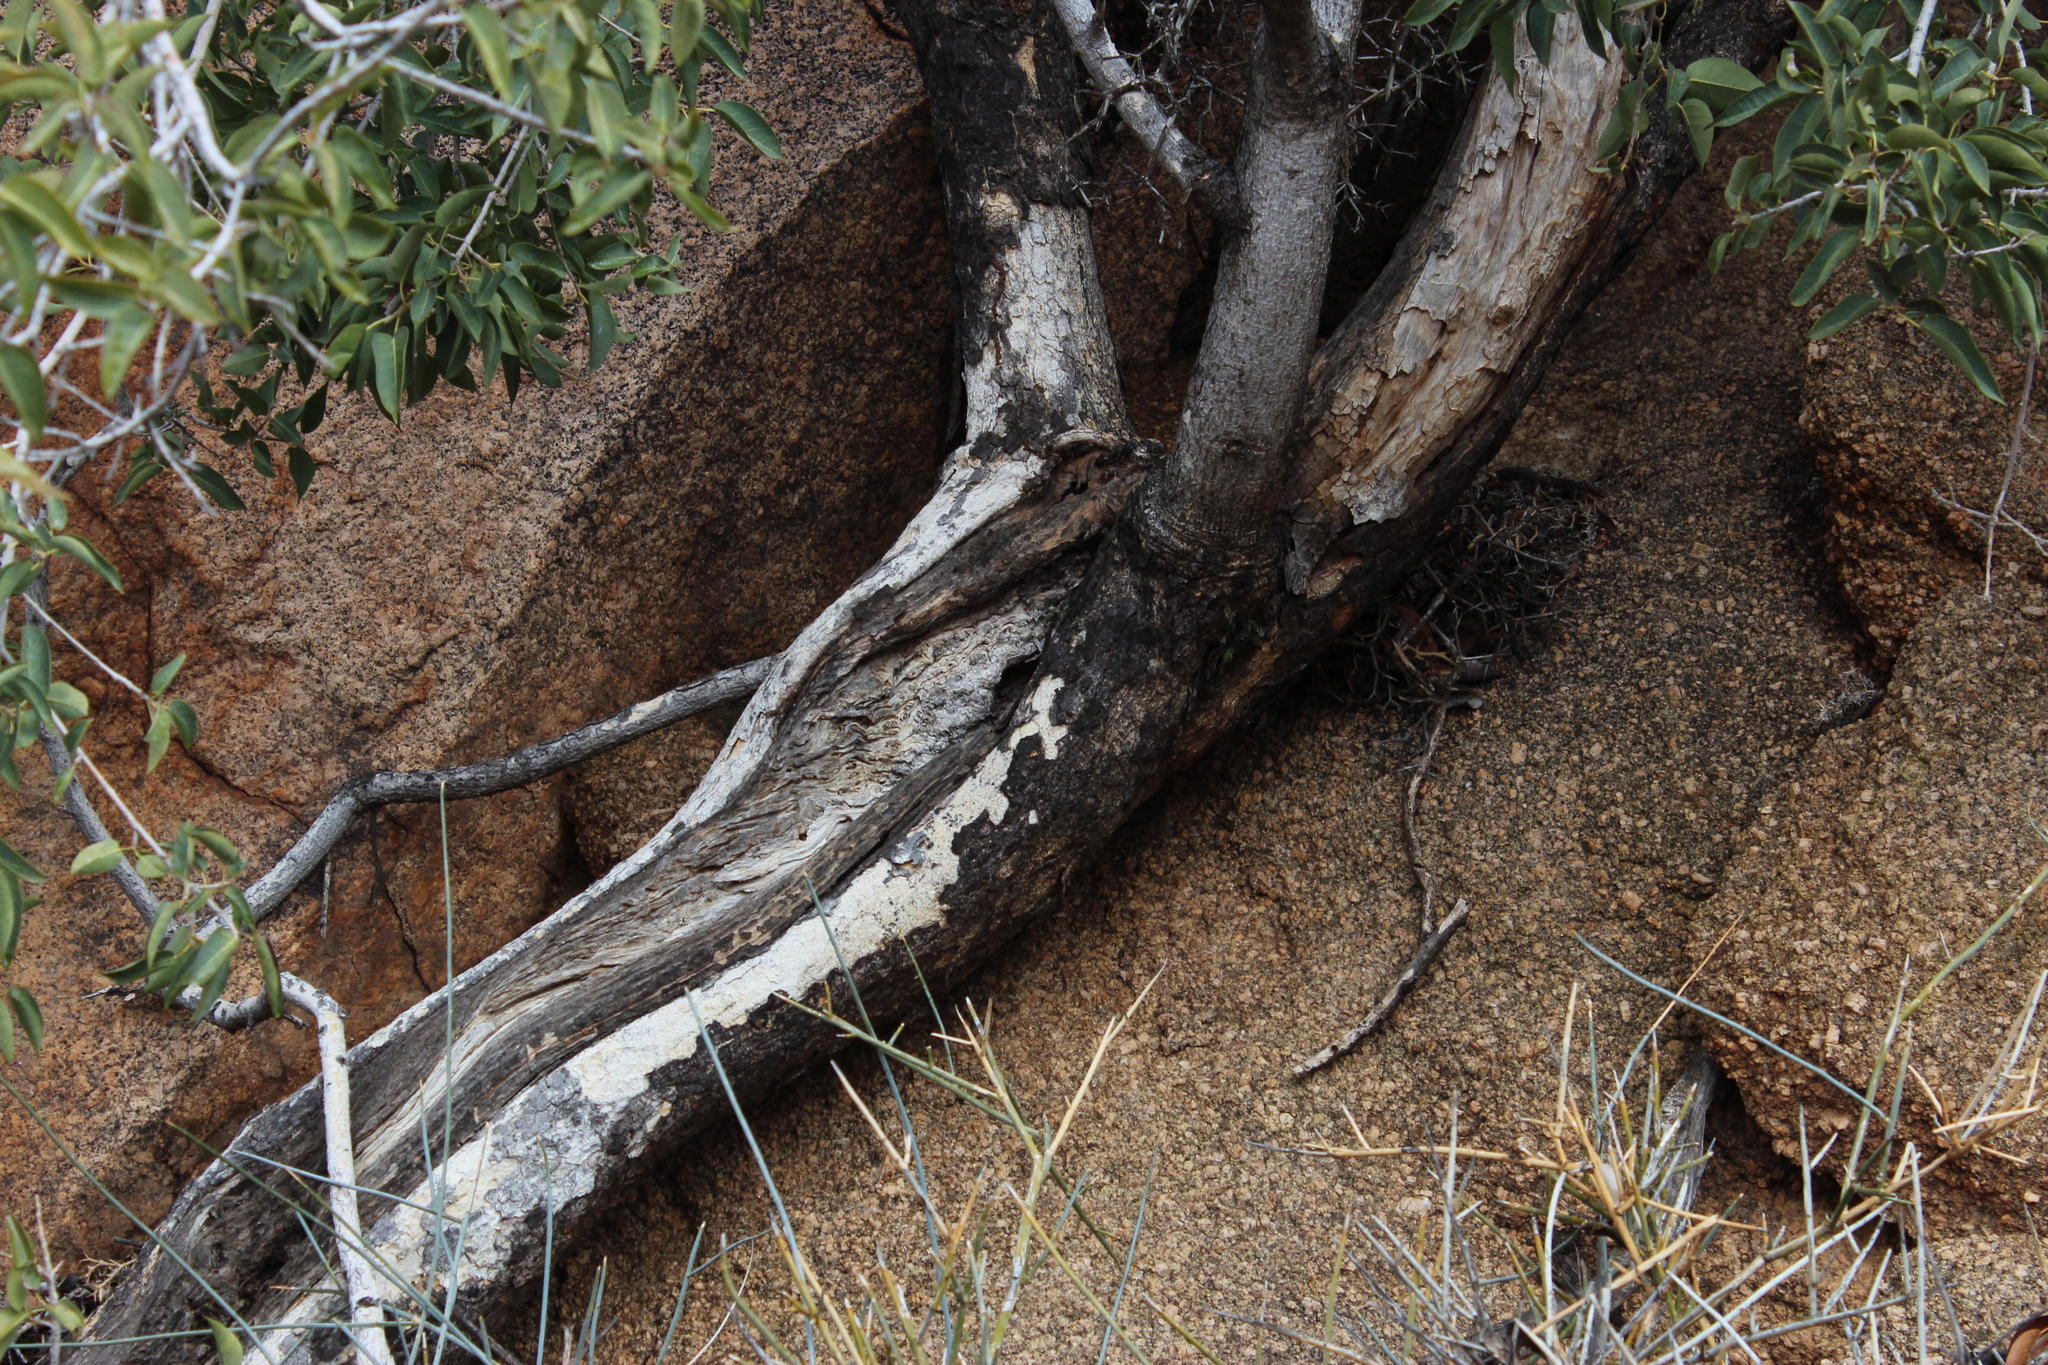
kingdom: Plantae
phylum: Tracheophyta
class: Magnoliopsida
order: Rosales
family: Moraceae
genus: Ficus
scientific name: Ficus ilicina
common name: Laurel rock fig
